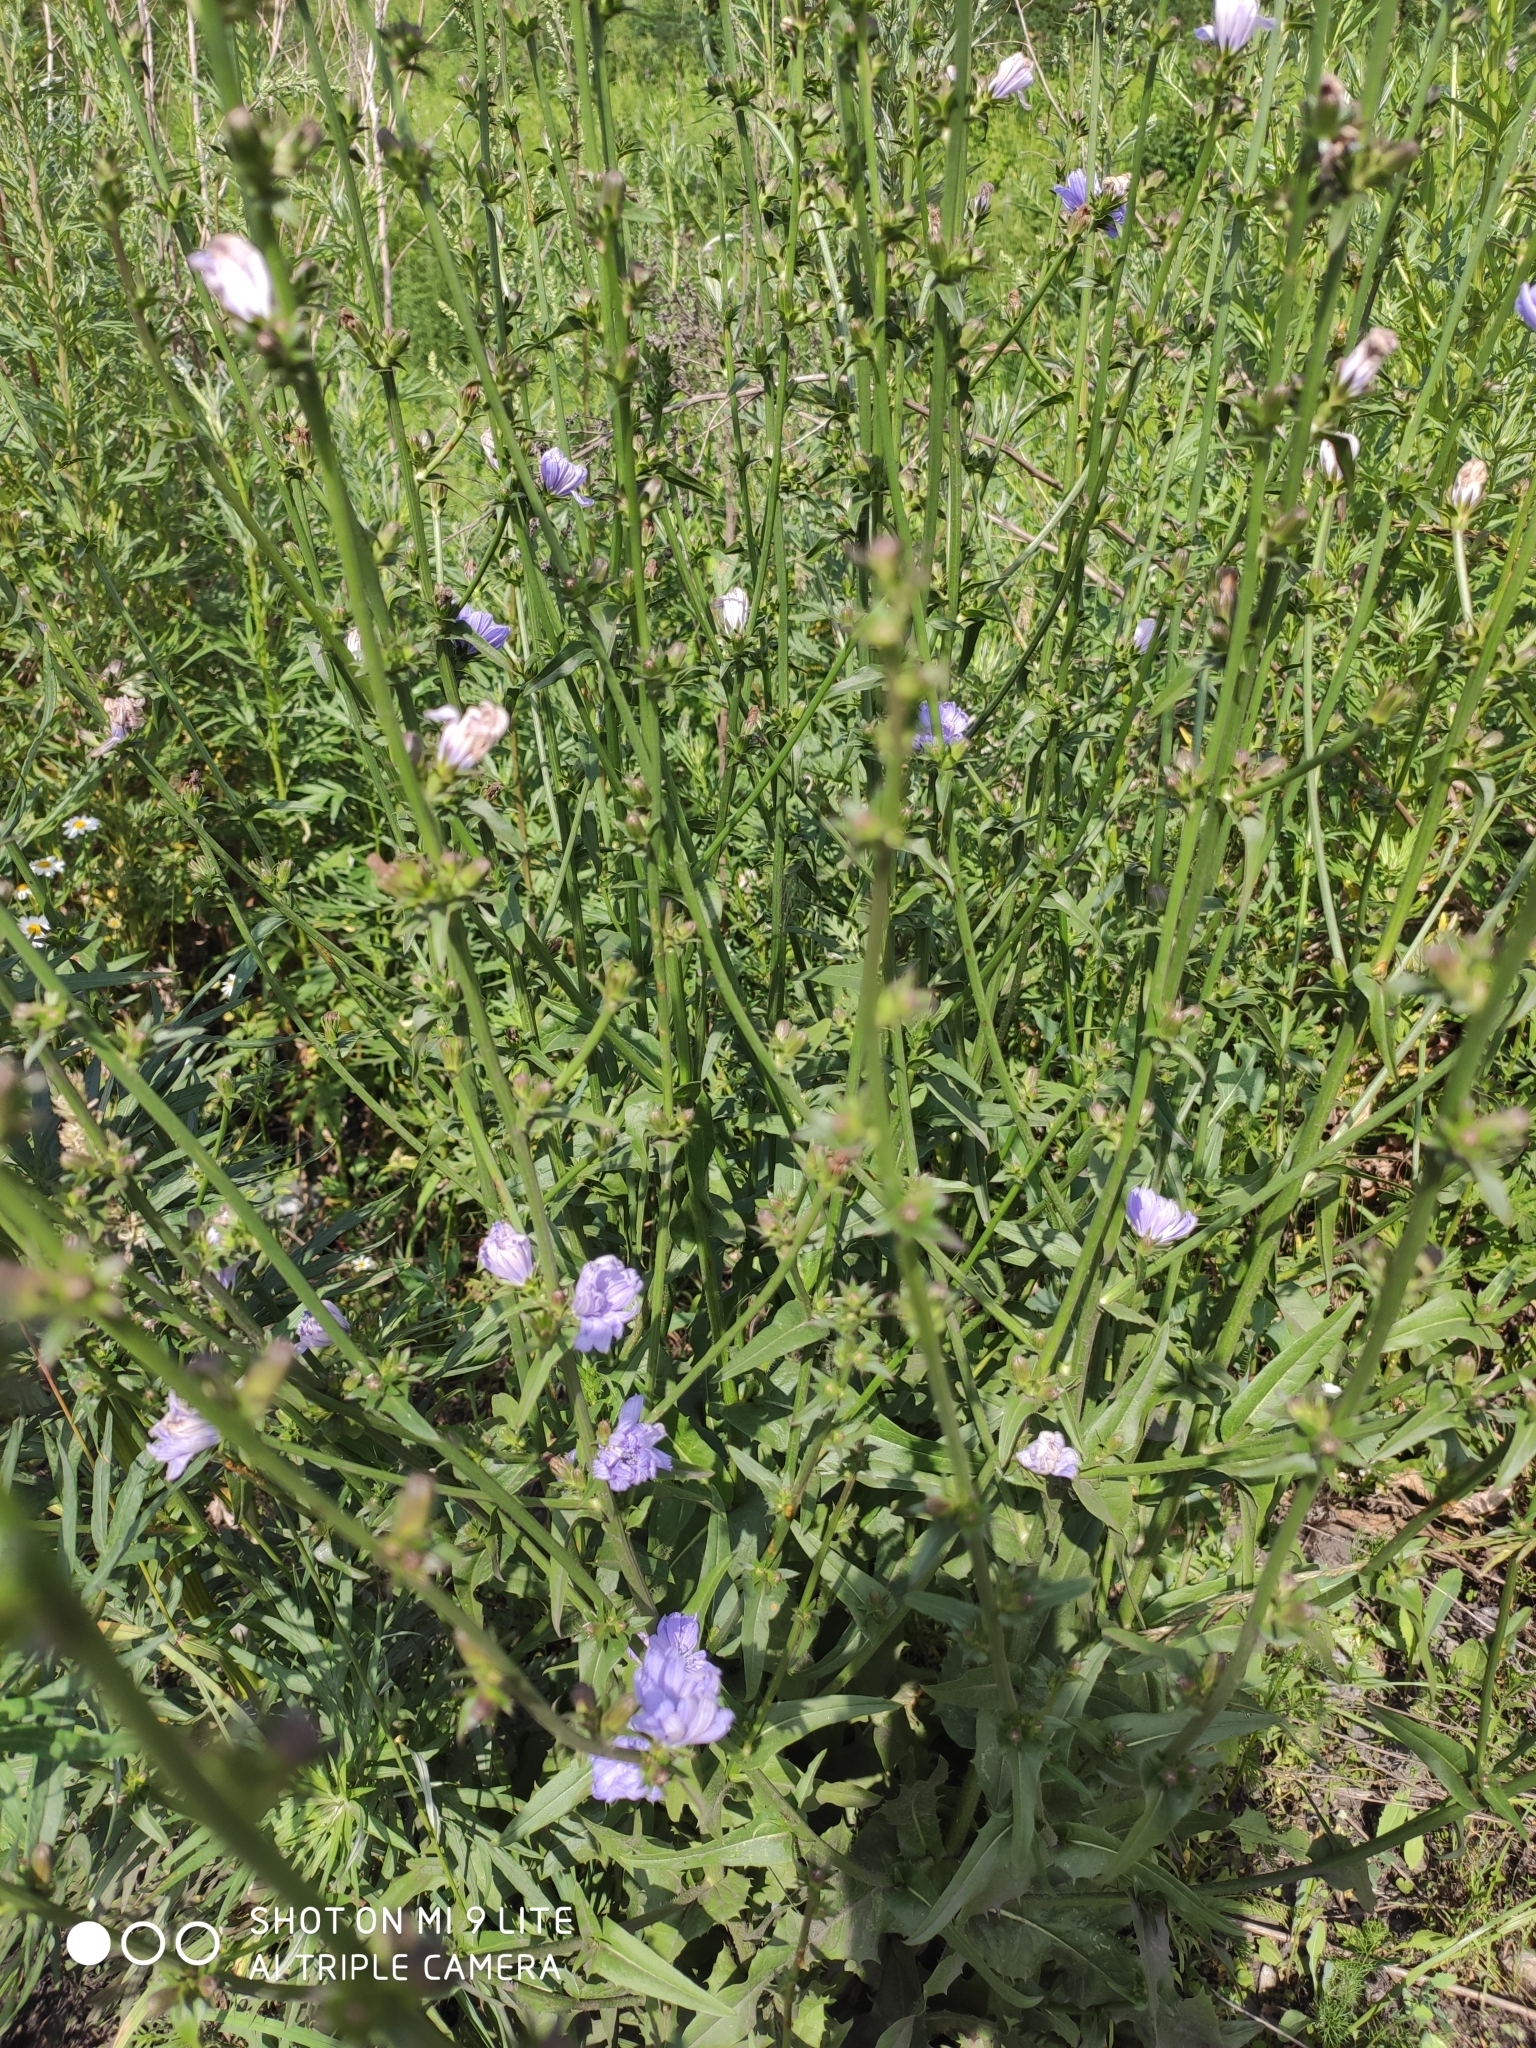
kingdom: Plantae
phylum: Tracheophyta
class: Magnoliopsida
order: Asterales
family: Asteraceae
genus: Cichorium
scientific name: Cichorium intybus
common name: Chicory
